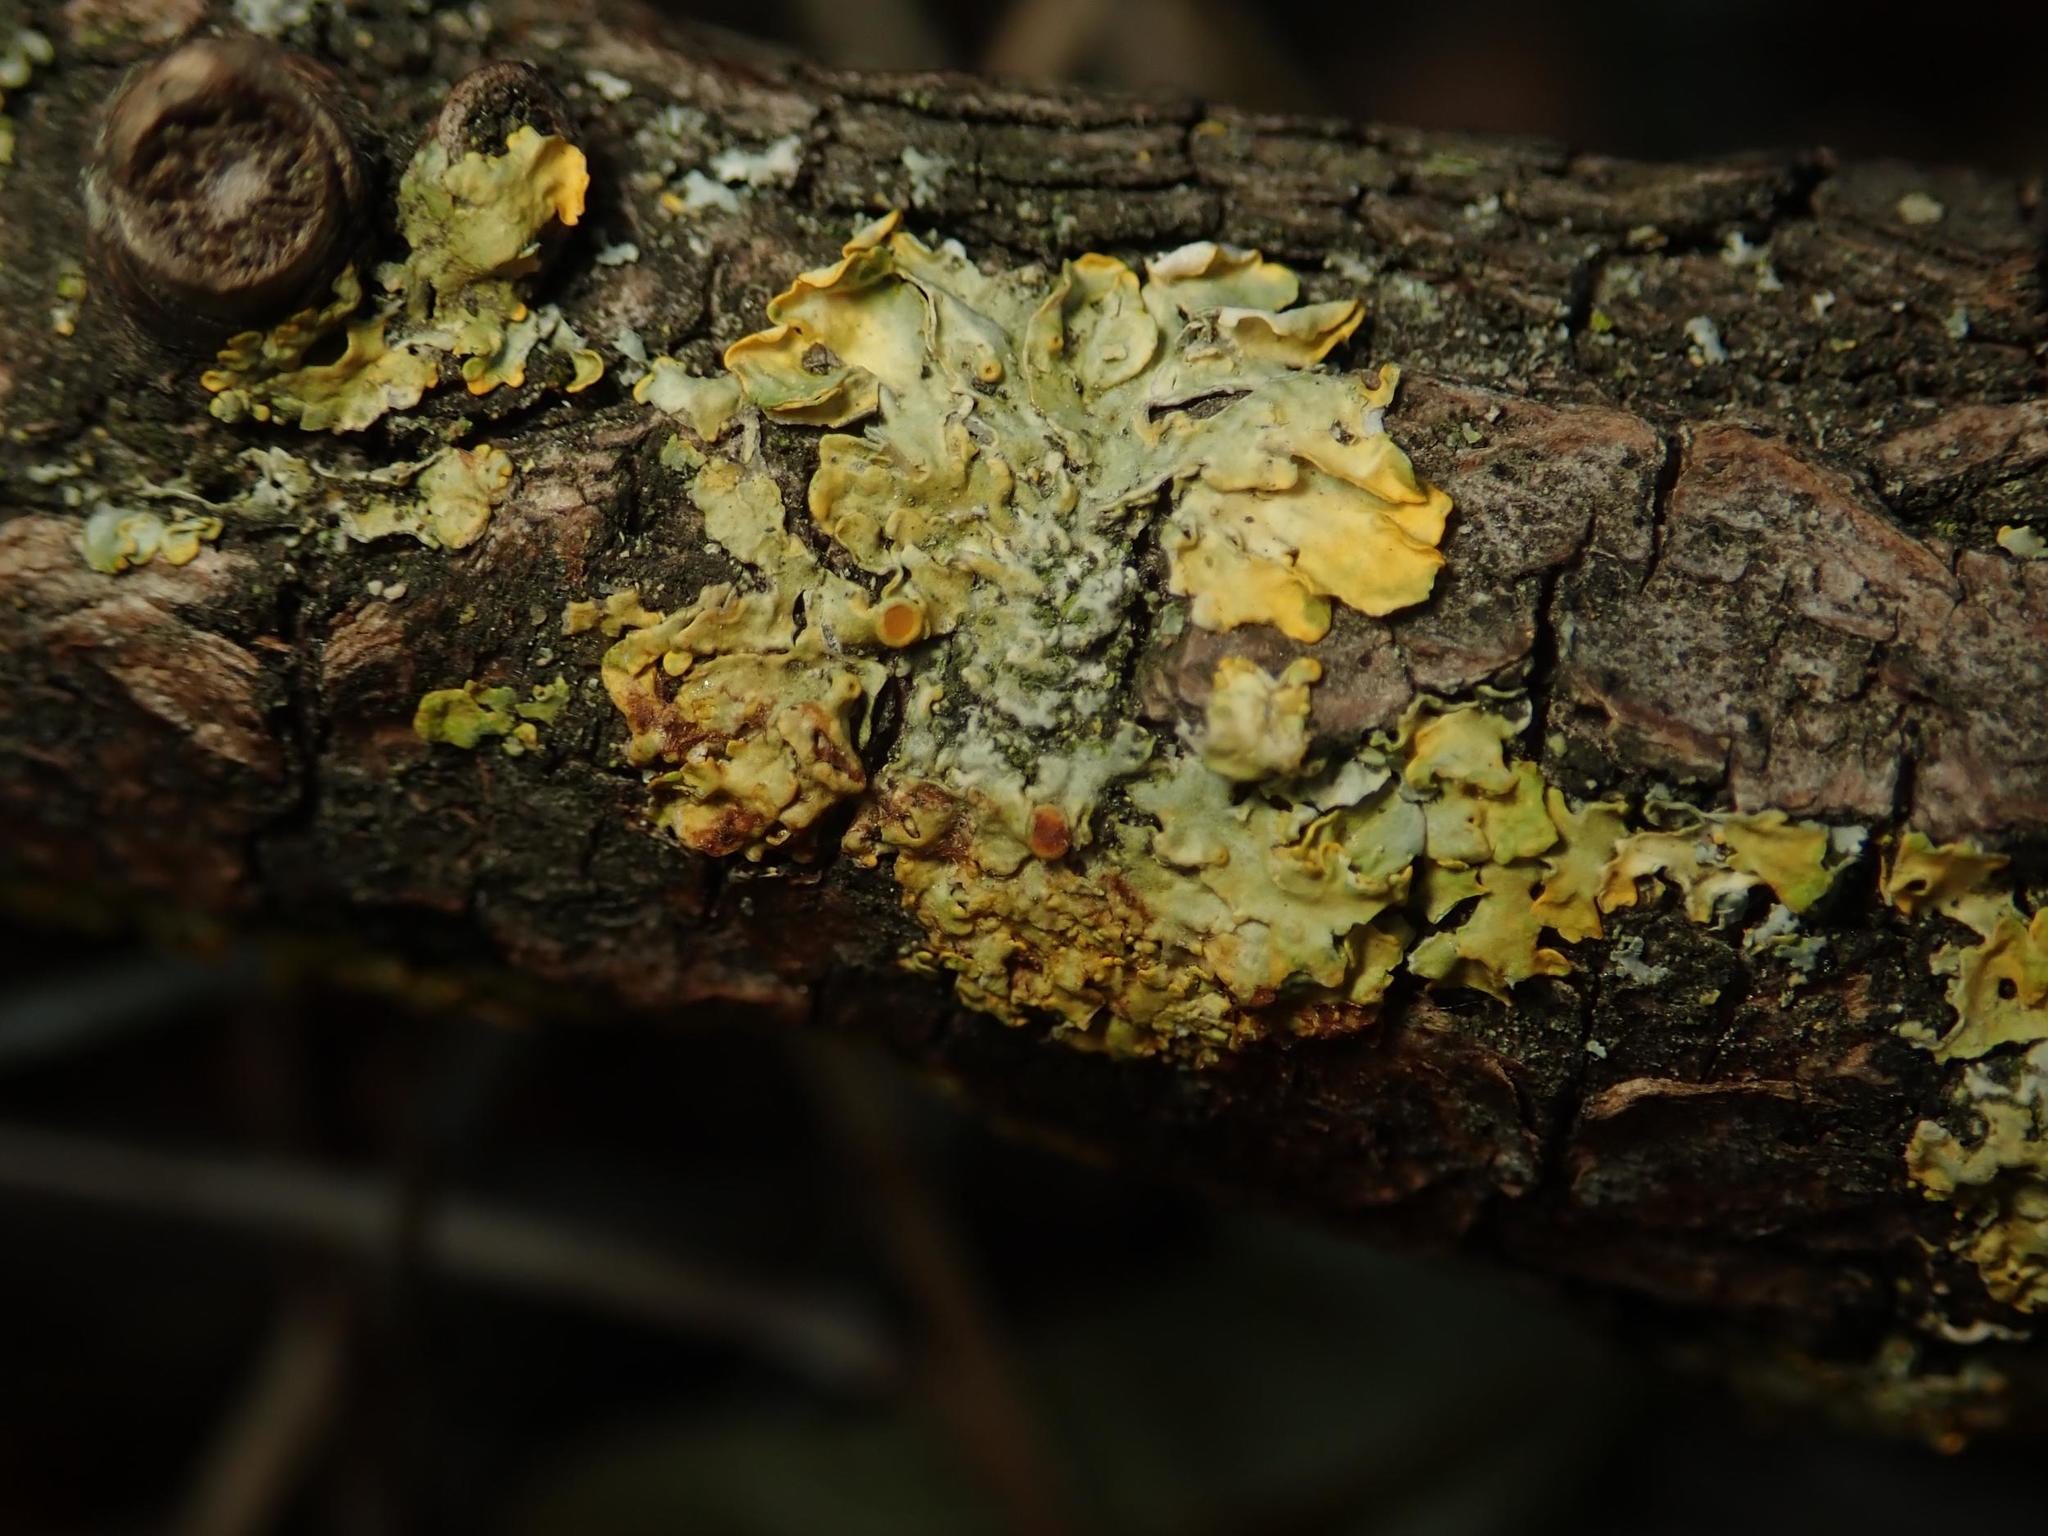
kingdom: Fungi
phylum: Ascomycota
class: Lecanoromycetes
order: Teloschistales
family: Teloschistaceae
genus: Xanthoria
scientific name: Xanthoria parietina
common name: Common orange lichen
